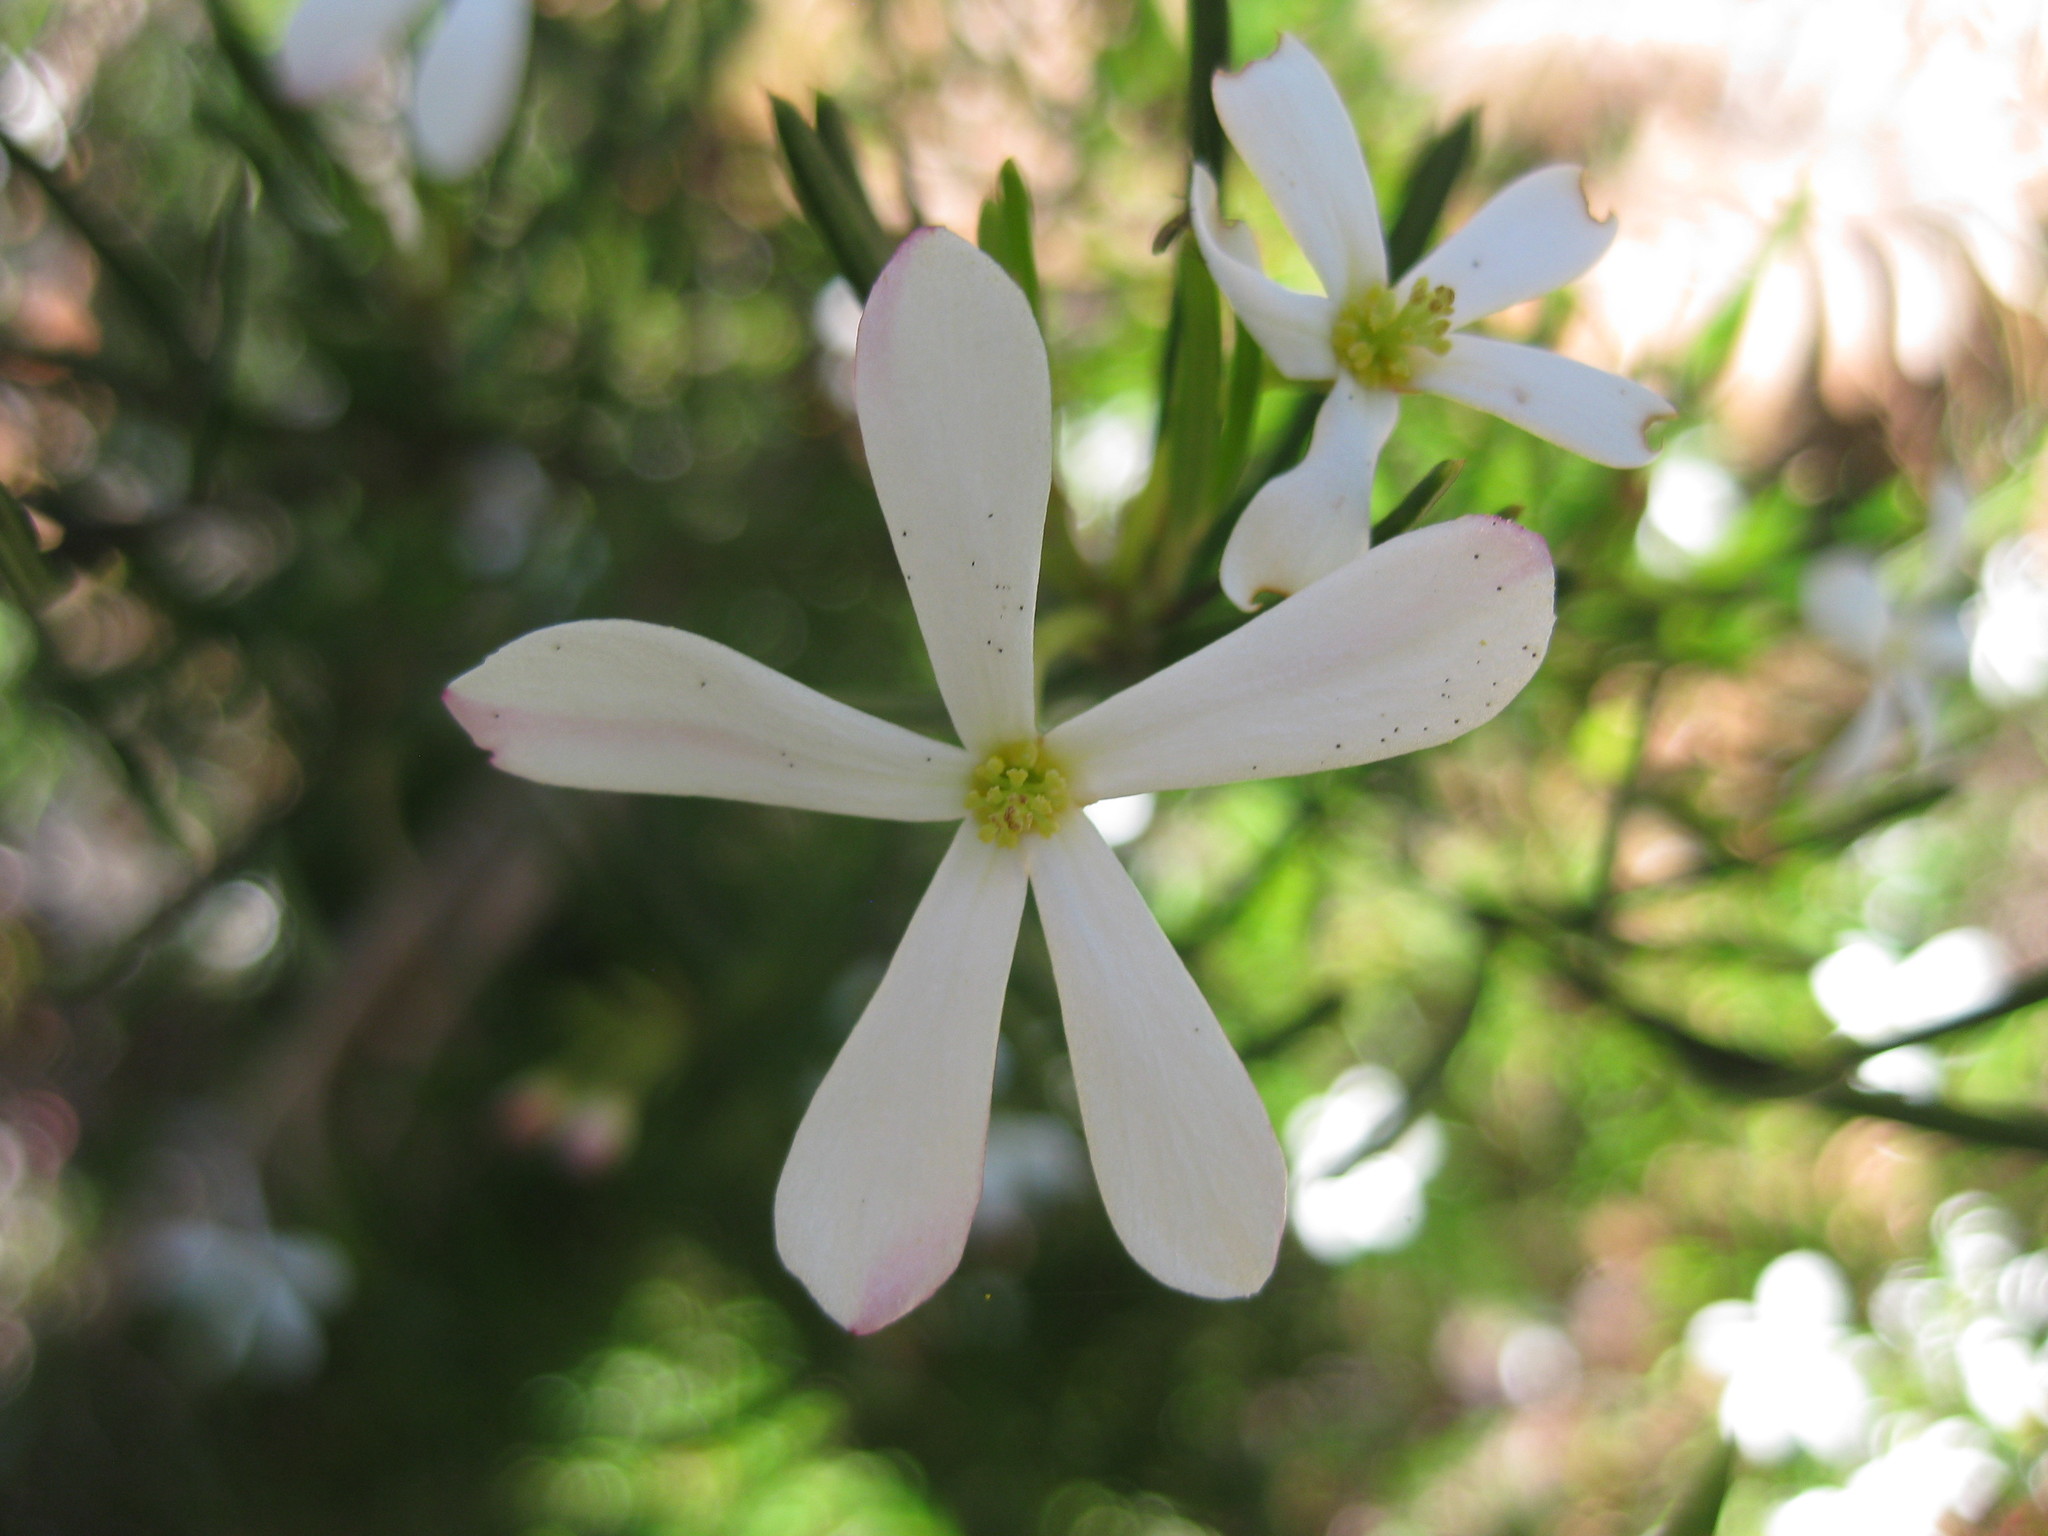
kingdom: Plantae
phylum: Tracheophyta
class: Magnoliopsida
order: Malpighiales
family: Euphorbiaceae
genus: Ricinocarpos
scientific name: Ricinocarpos pinifolius
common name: Weddingbush
